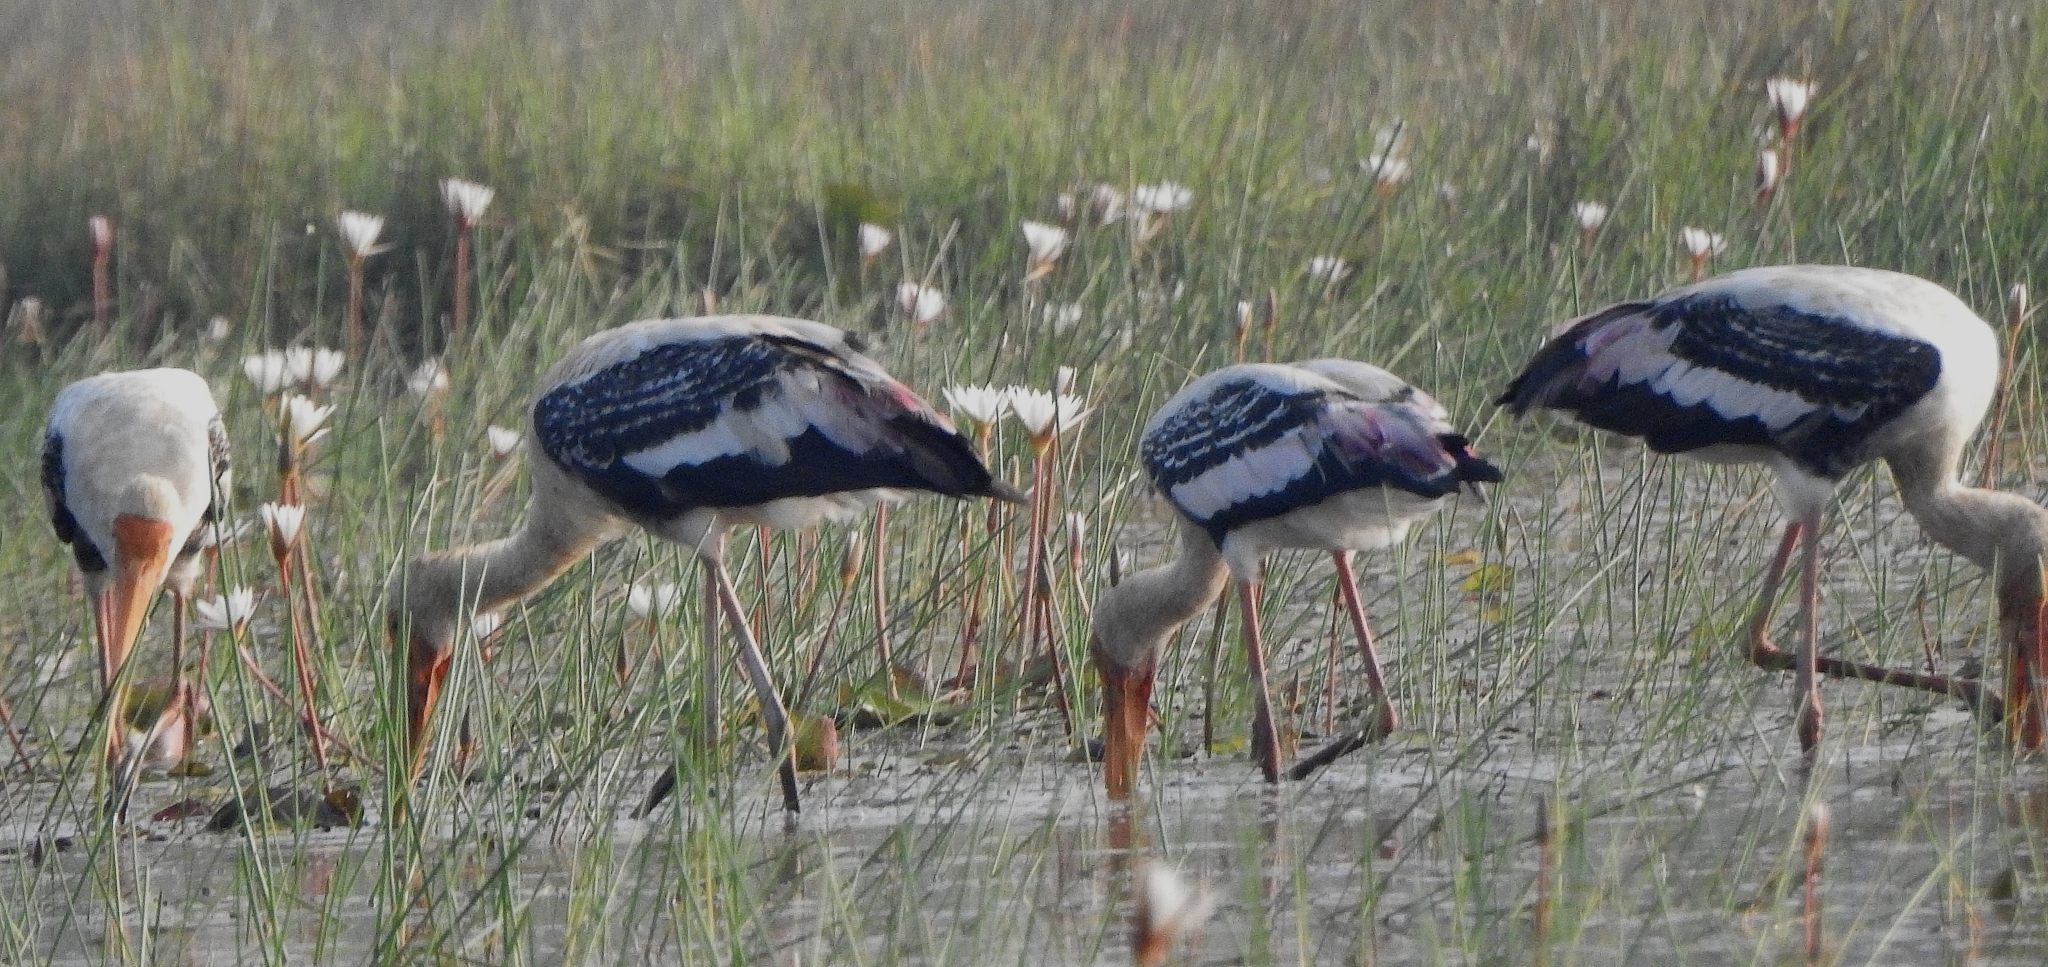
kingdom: Animalia
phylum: Chordata
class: Aves
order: Ciconiiformes
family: Ciconiidae
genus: Mycteria
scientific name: Mycteria leucocephala
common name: Painted stork
